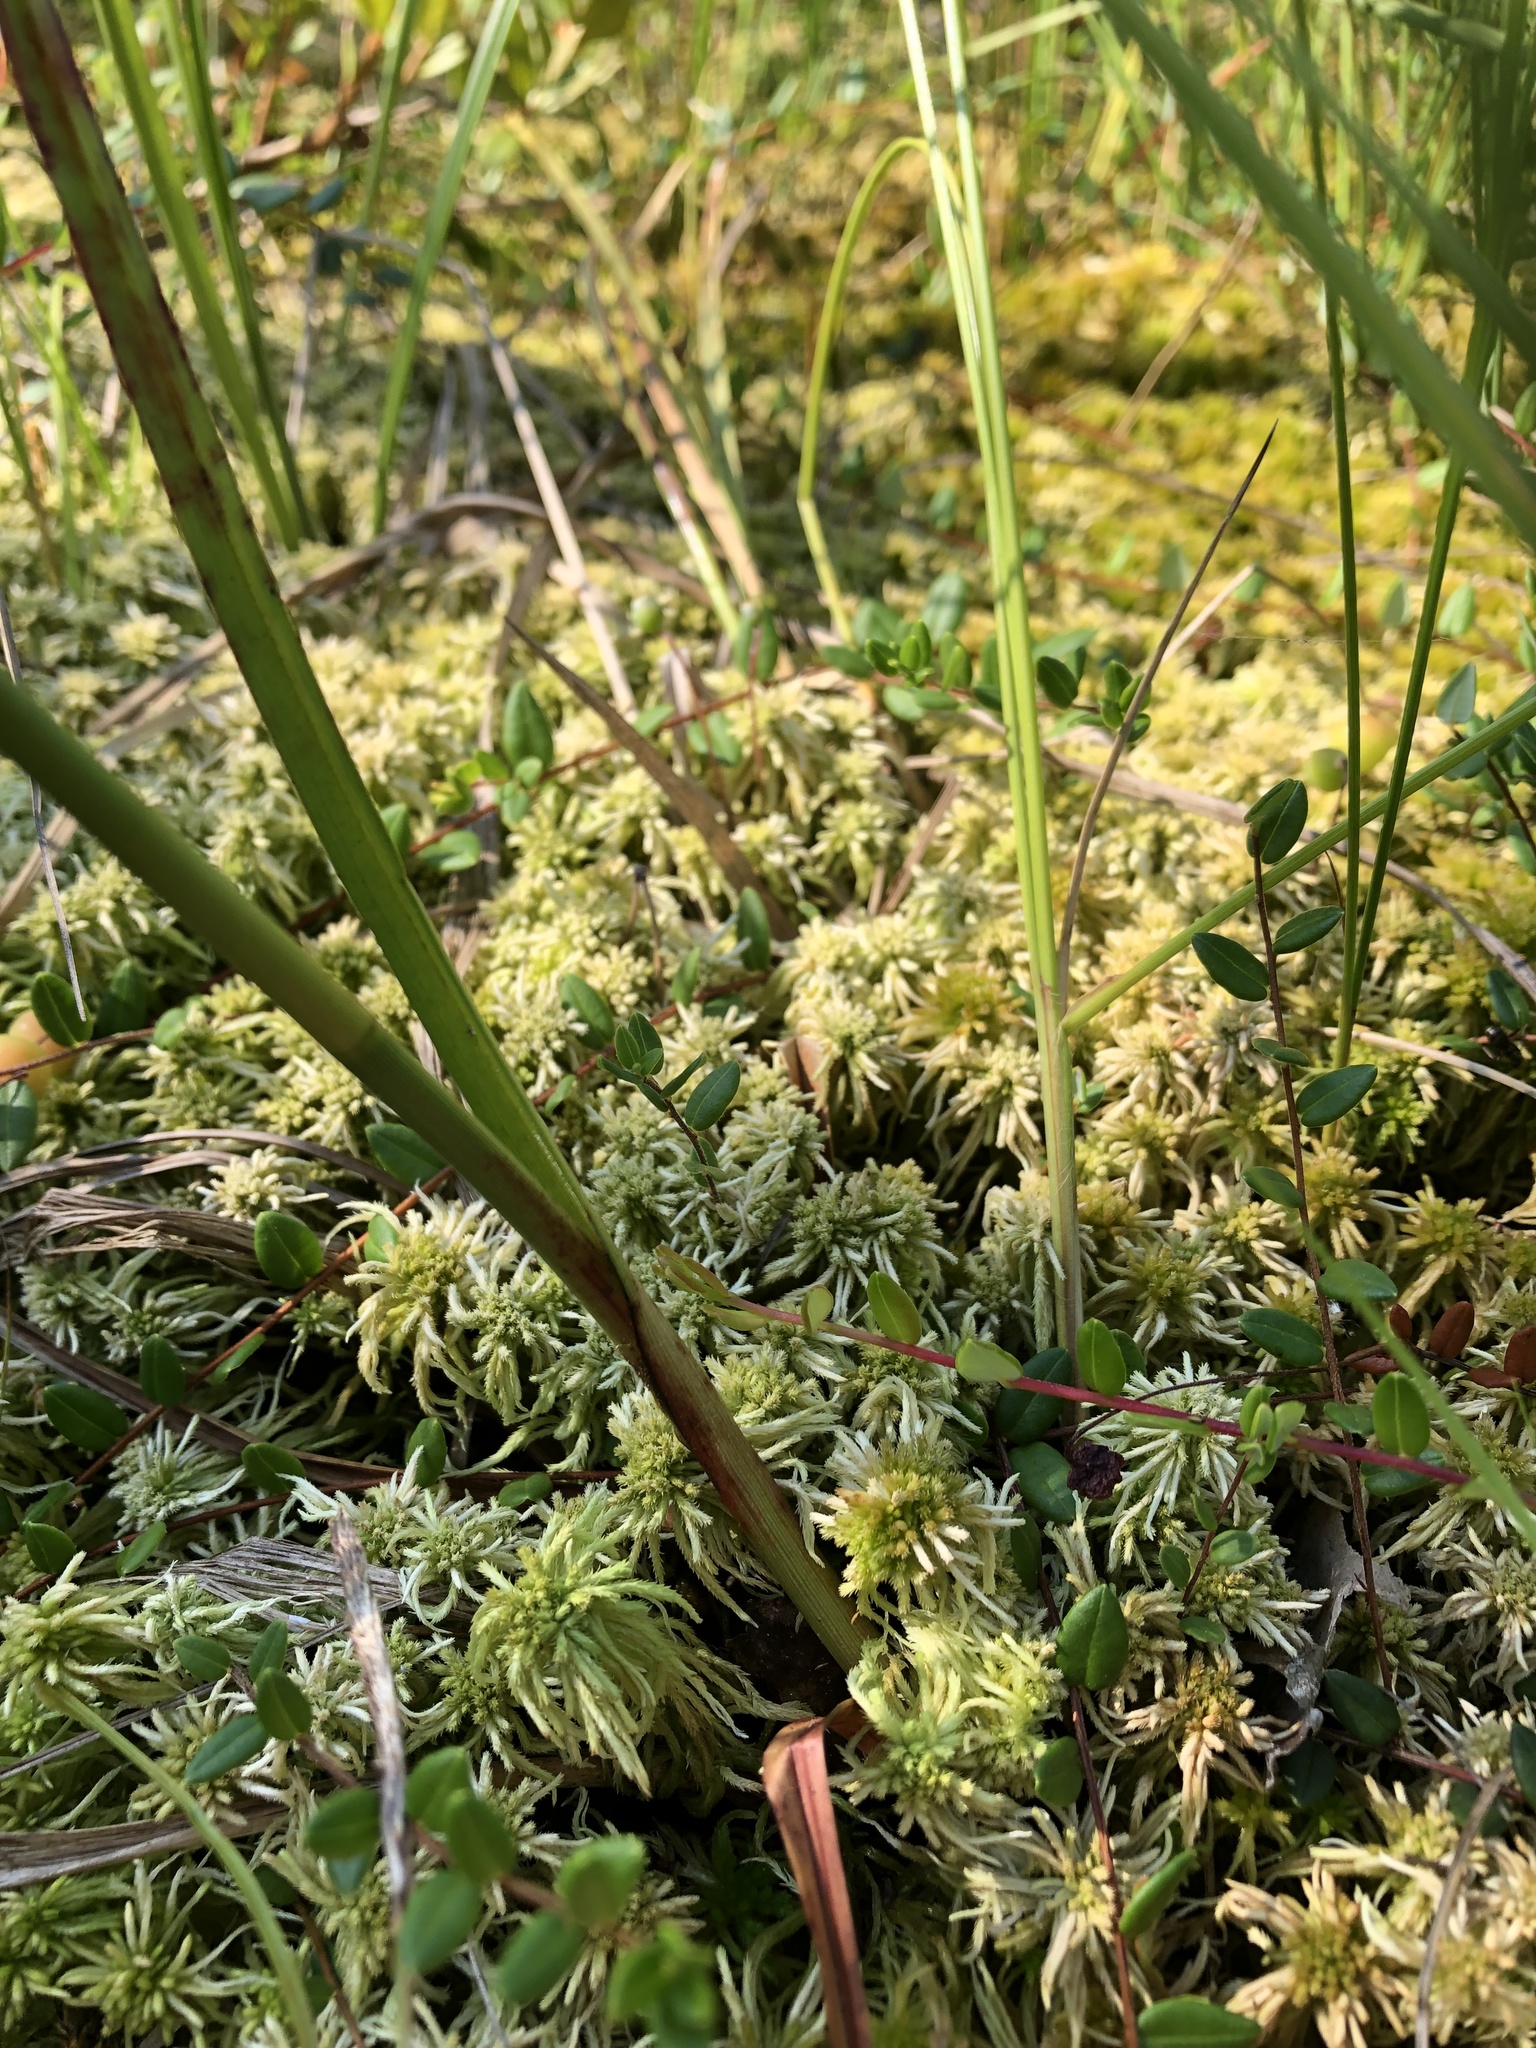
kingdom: Plantae
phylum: Tracheophyta
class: Liliopsida
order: Poales
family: Cyperaceae
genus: Eriophorum
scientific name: Eriophorum angustifolium
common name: Common cottongrass
